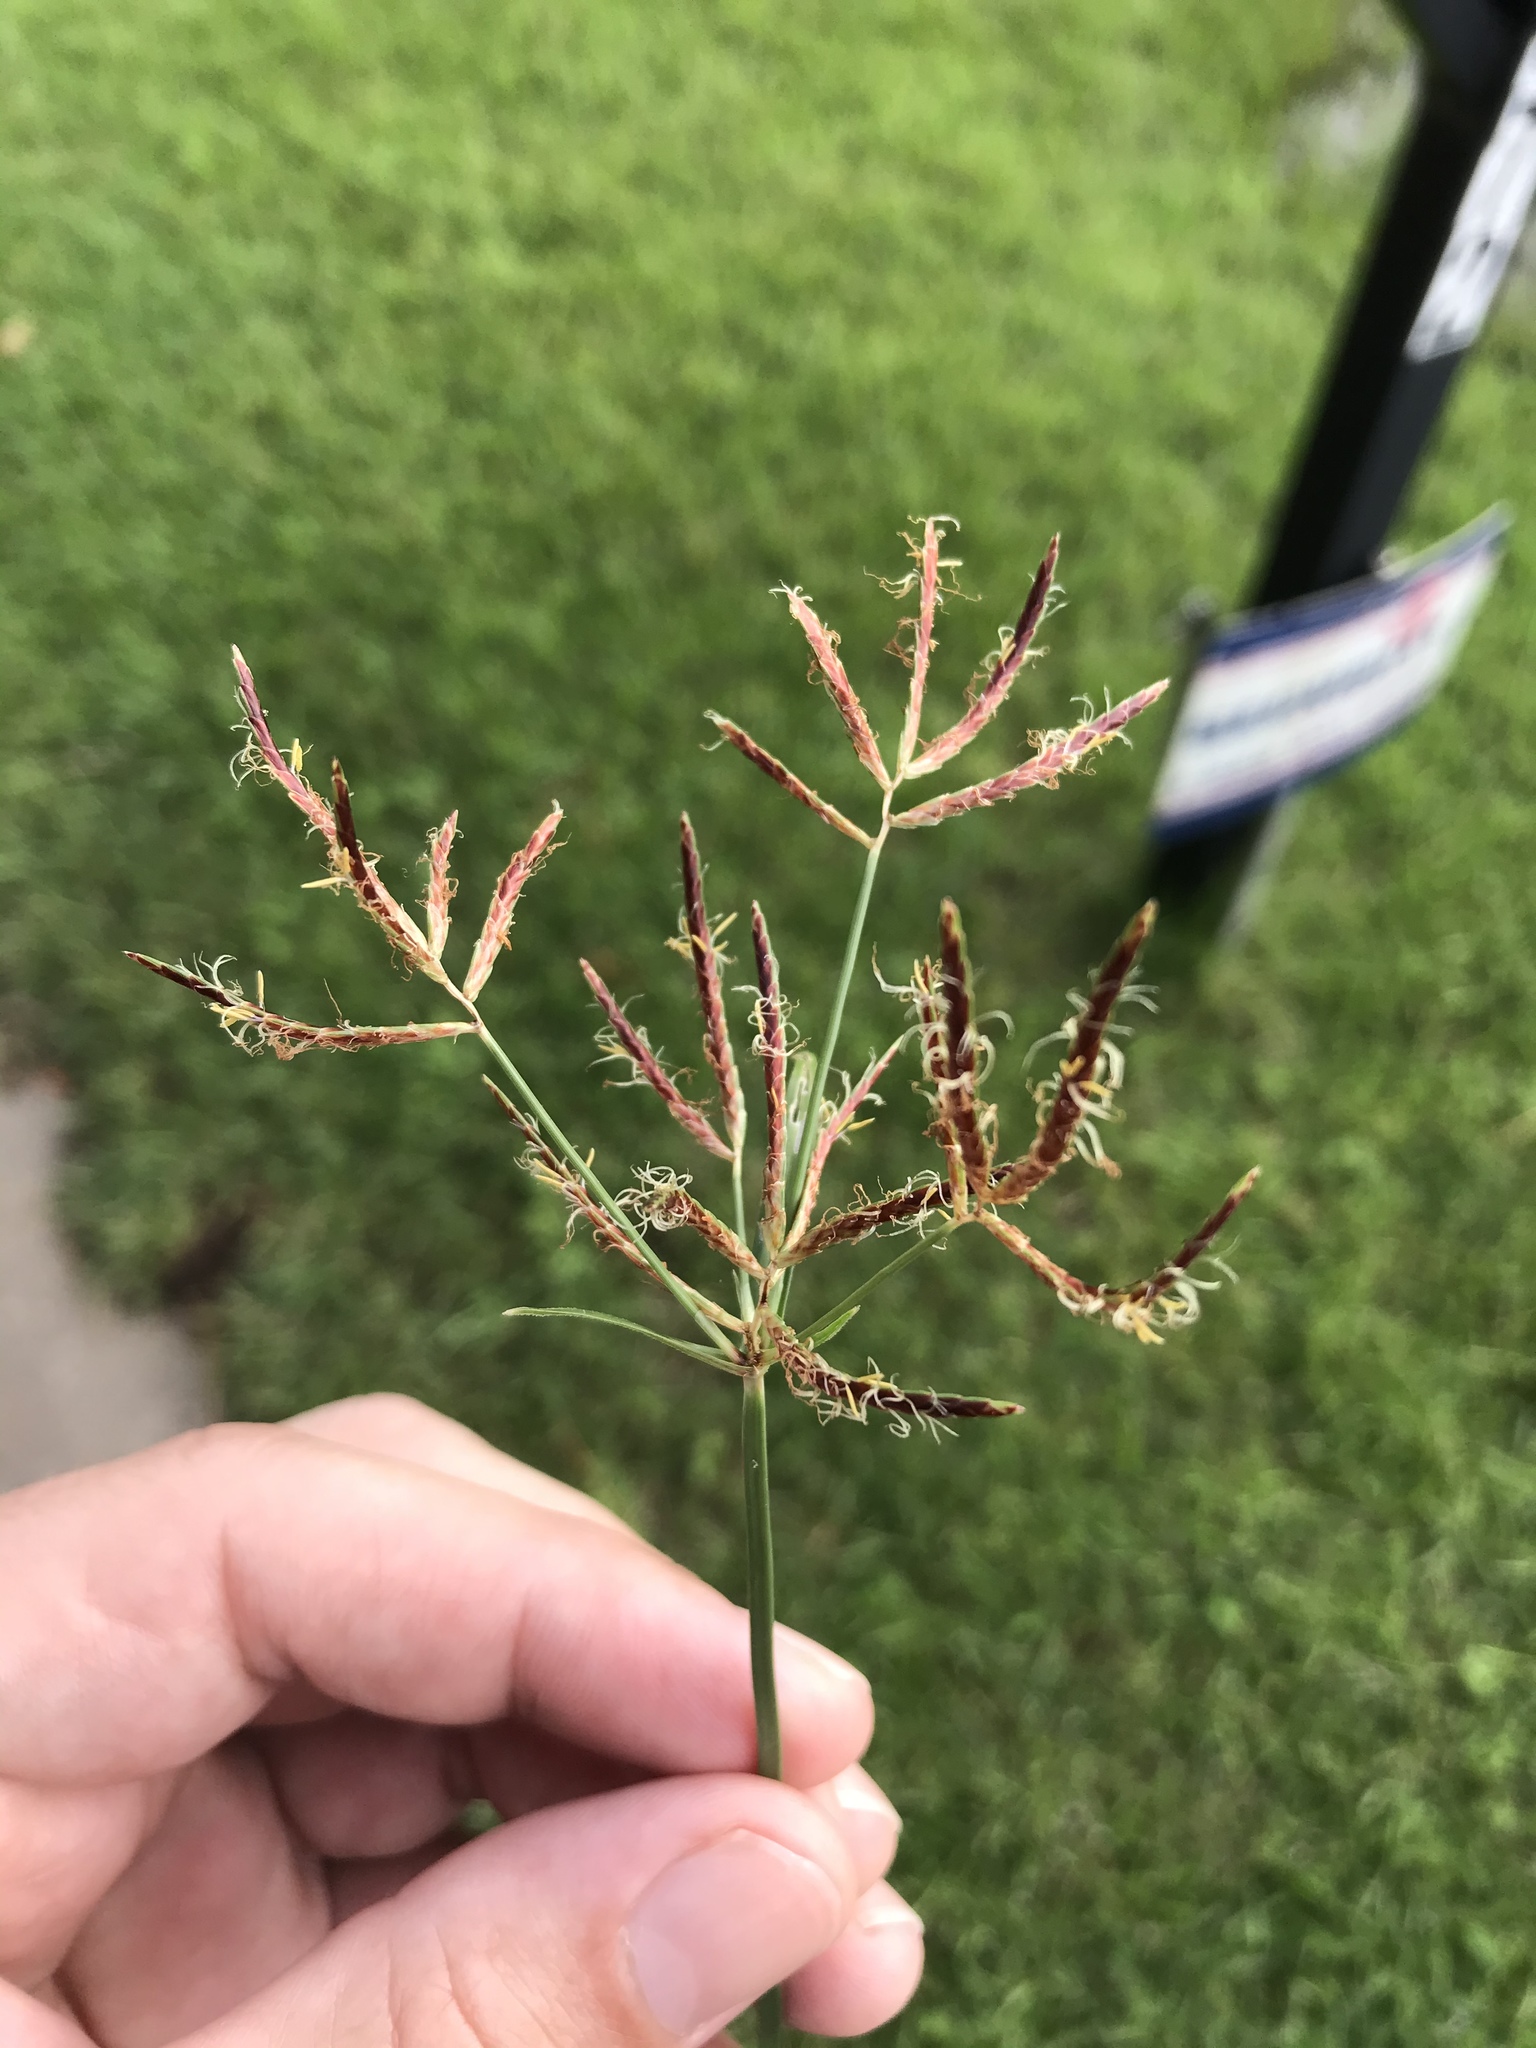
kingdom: Plantae
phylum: Tracheophyta
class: Liliopsida
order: Poales
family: Cyperaceae
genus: Cyperus
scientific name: Cyperus rotundus
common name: Nutgrass
